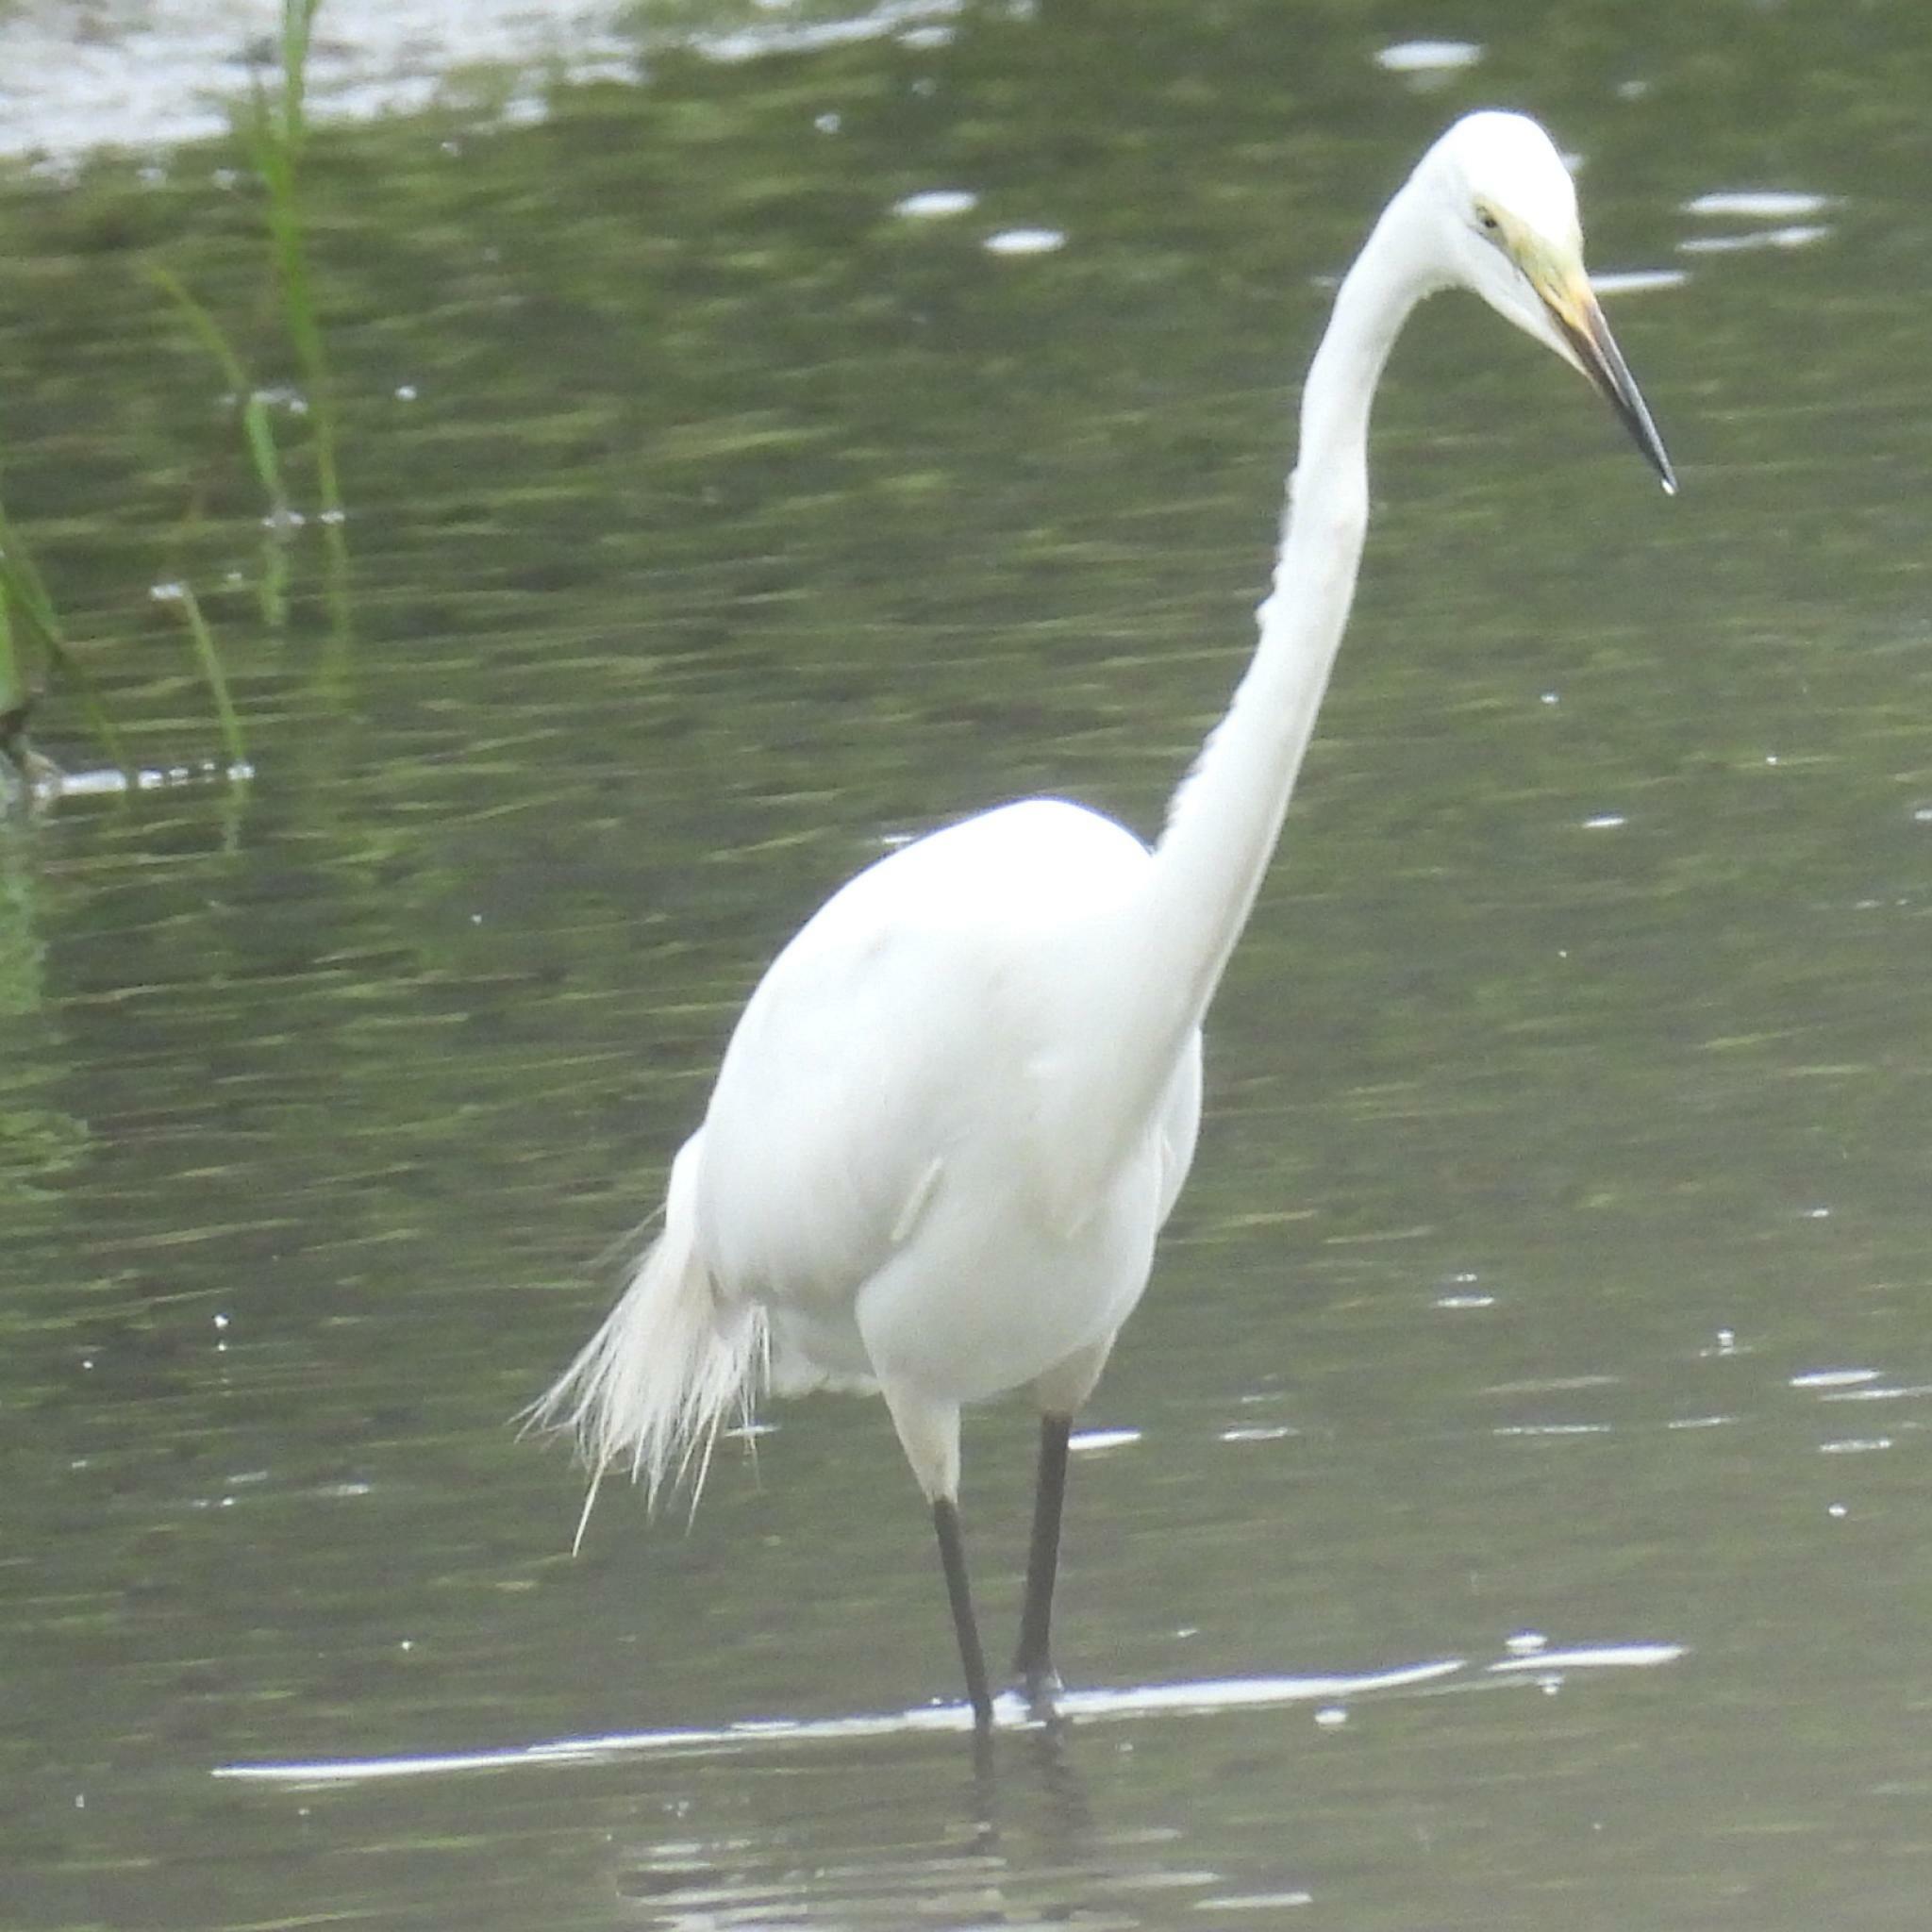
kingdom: Animalia
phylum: Chordata
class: Aves
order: Pelecaniformes
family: Ardeidae
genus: Ardea
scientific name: Ardea alba
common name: Great egret
